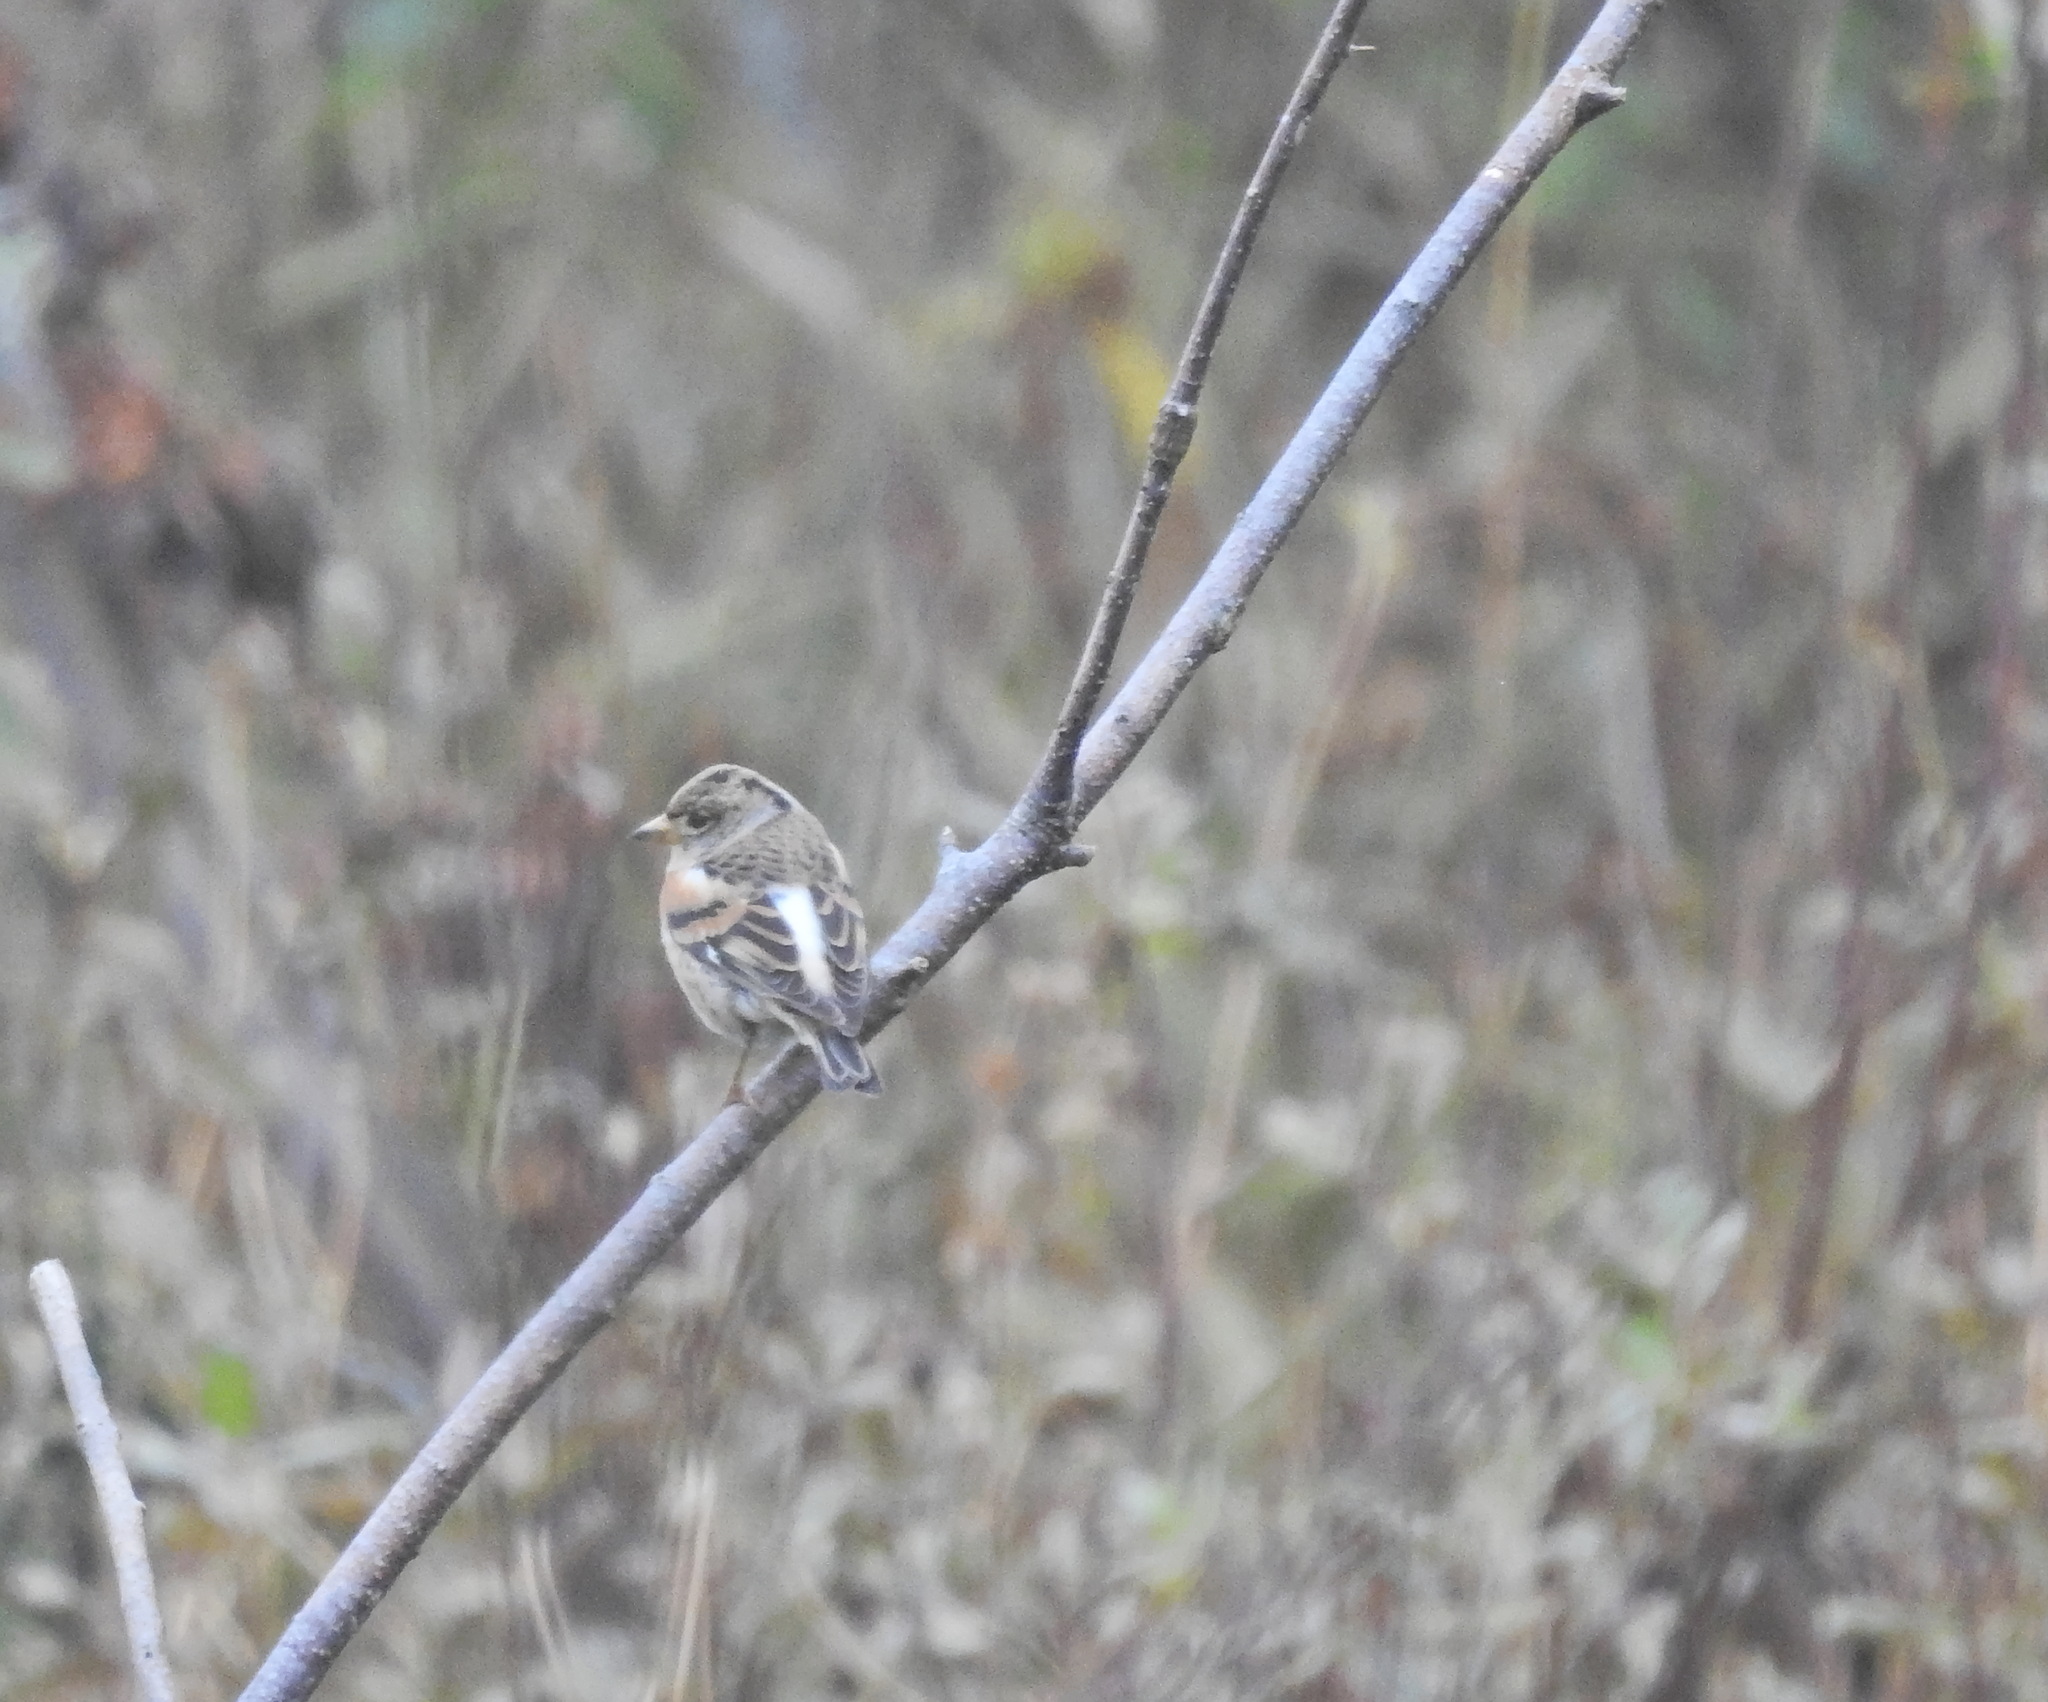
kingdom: Animalia
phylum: Chordata
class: Aves
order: Passeriformes
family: Fringillidae
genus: Fringilla
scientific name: Fringilla montifringilla
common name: Brambling
